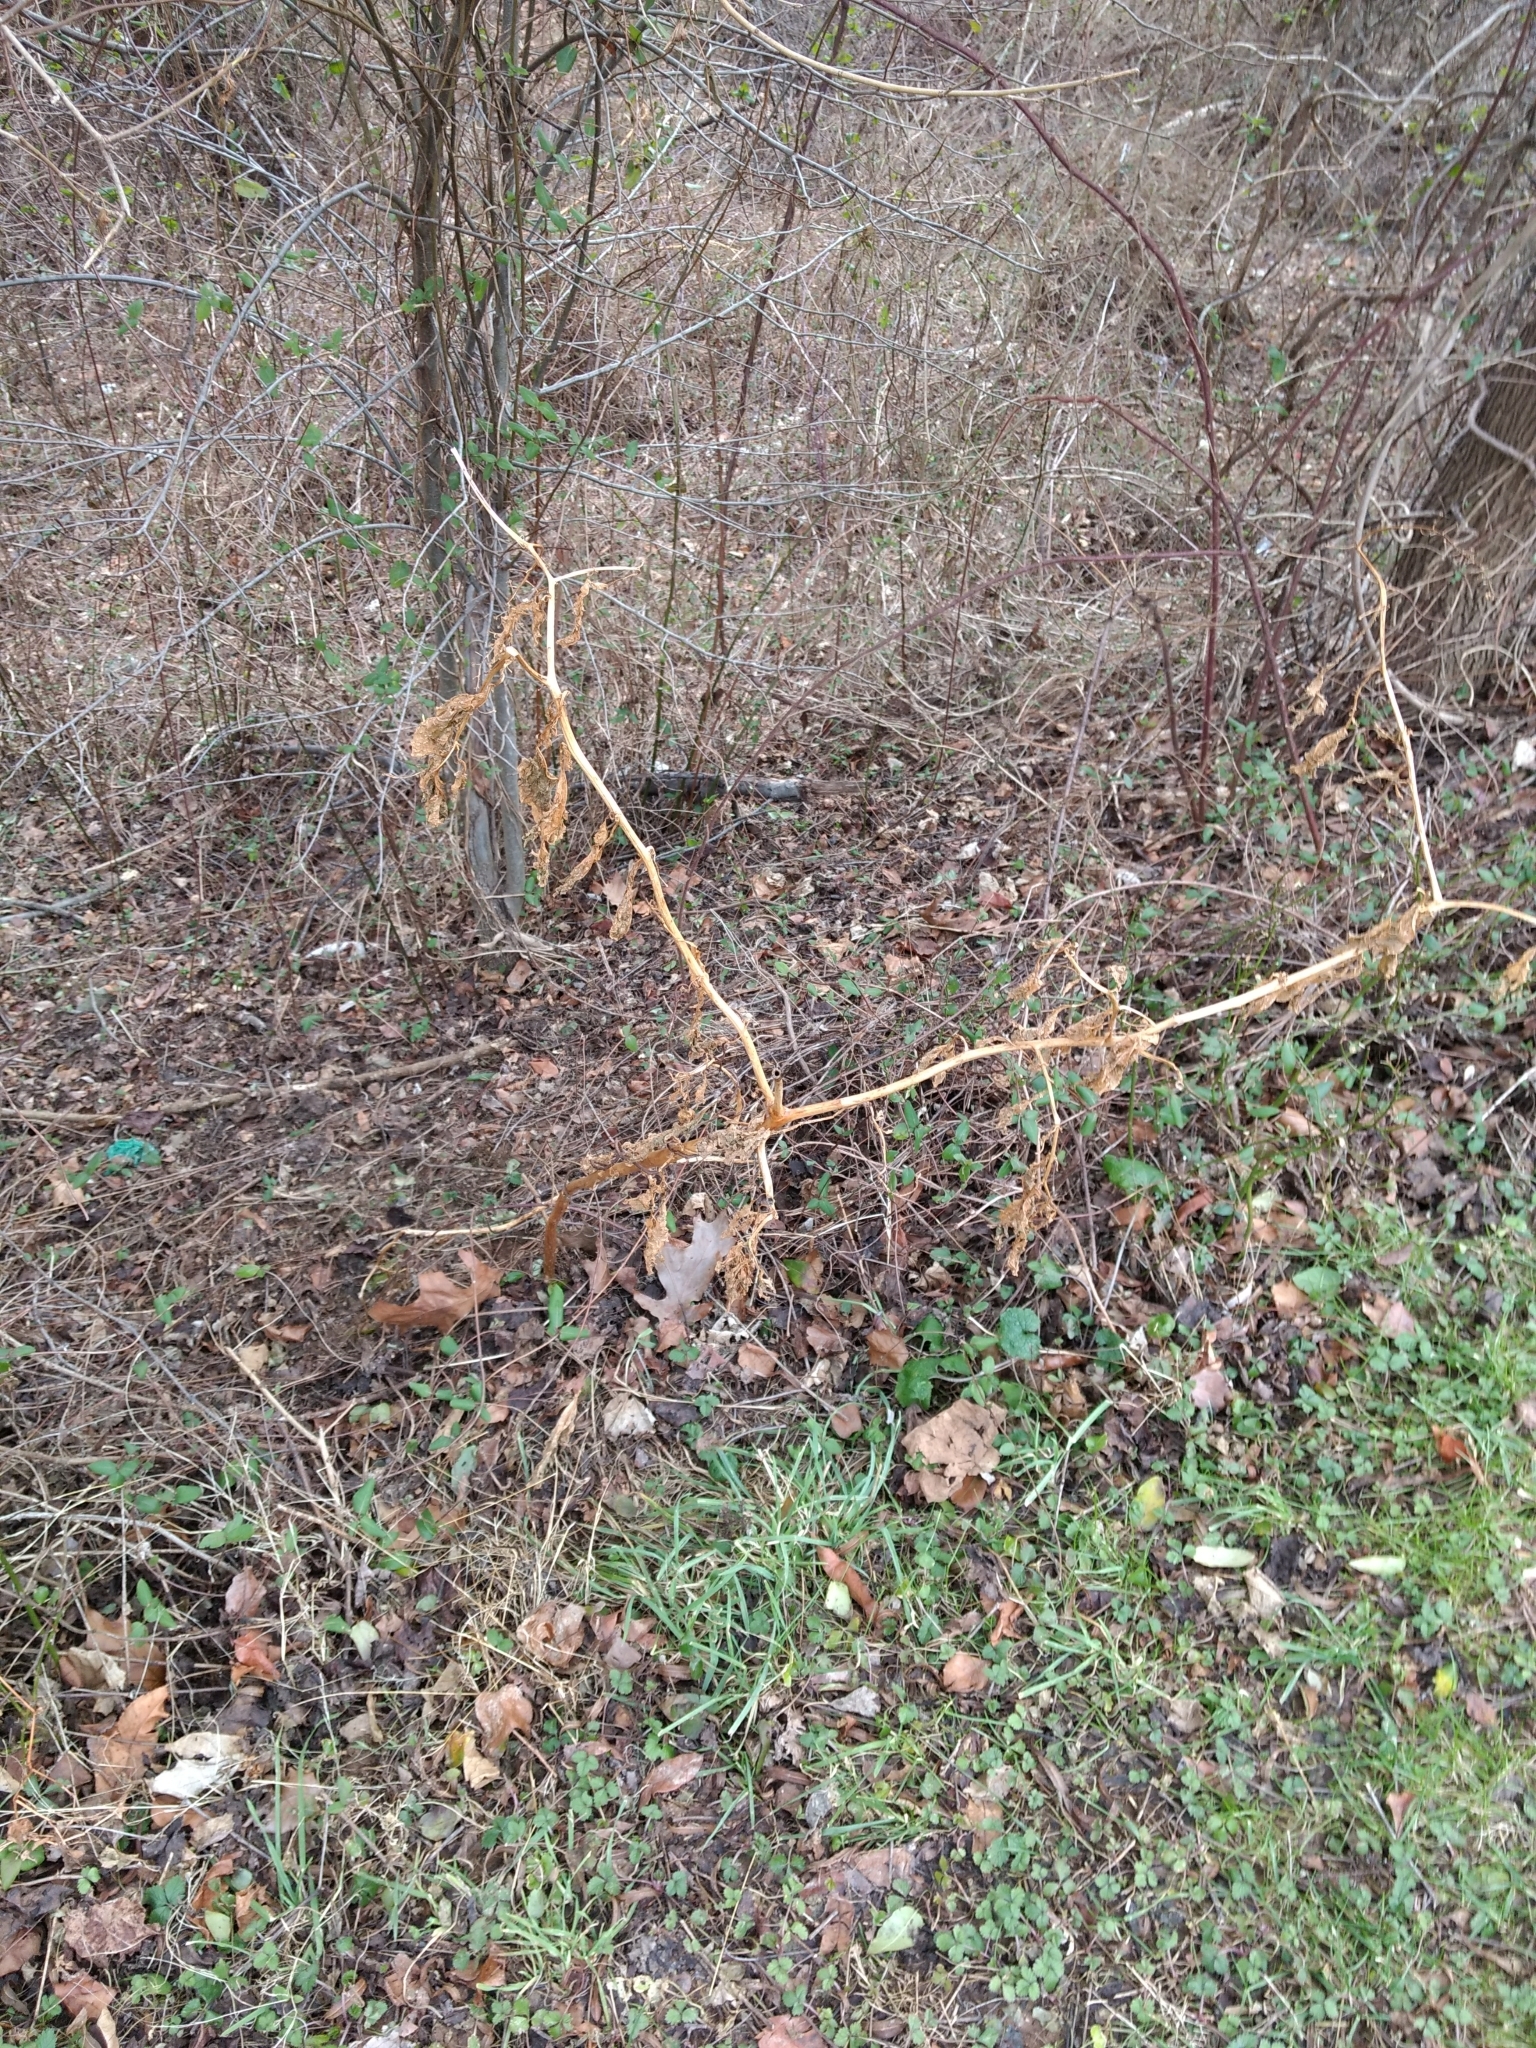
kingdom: Plantae
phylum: Tracheophyta
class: Magnoliopsida
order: Caryophyllales
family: Phytolaccaceae
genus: Phytolacca
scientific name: Phytolacca americana
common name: American pokeweed
